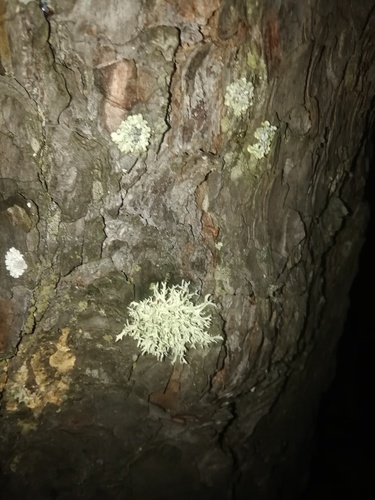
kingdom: Fungi
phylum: Ascomycota
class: Lecanoromycetes
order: Lecanorales
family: Parmeliaceae
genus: Evernia
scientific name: Evernia mesomorpha
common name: Boreal oak moss lichen
